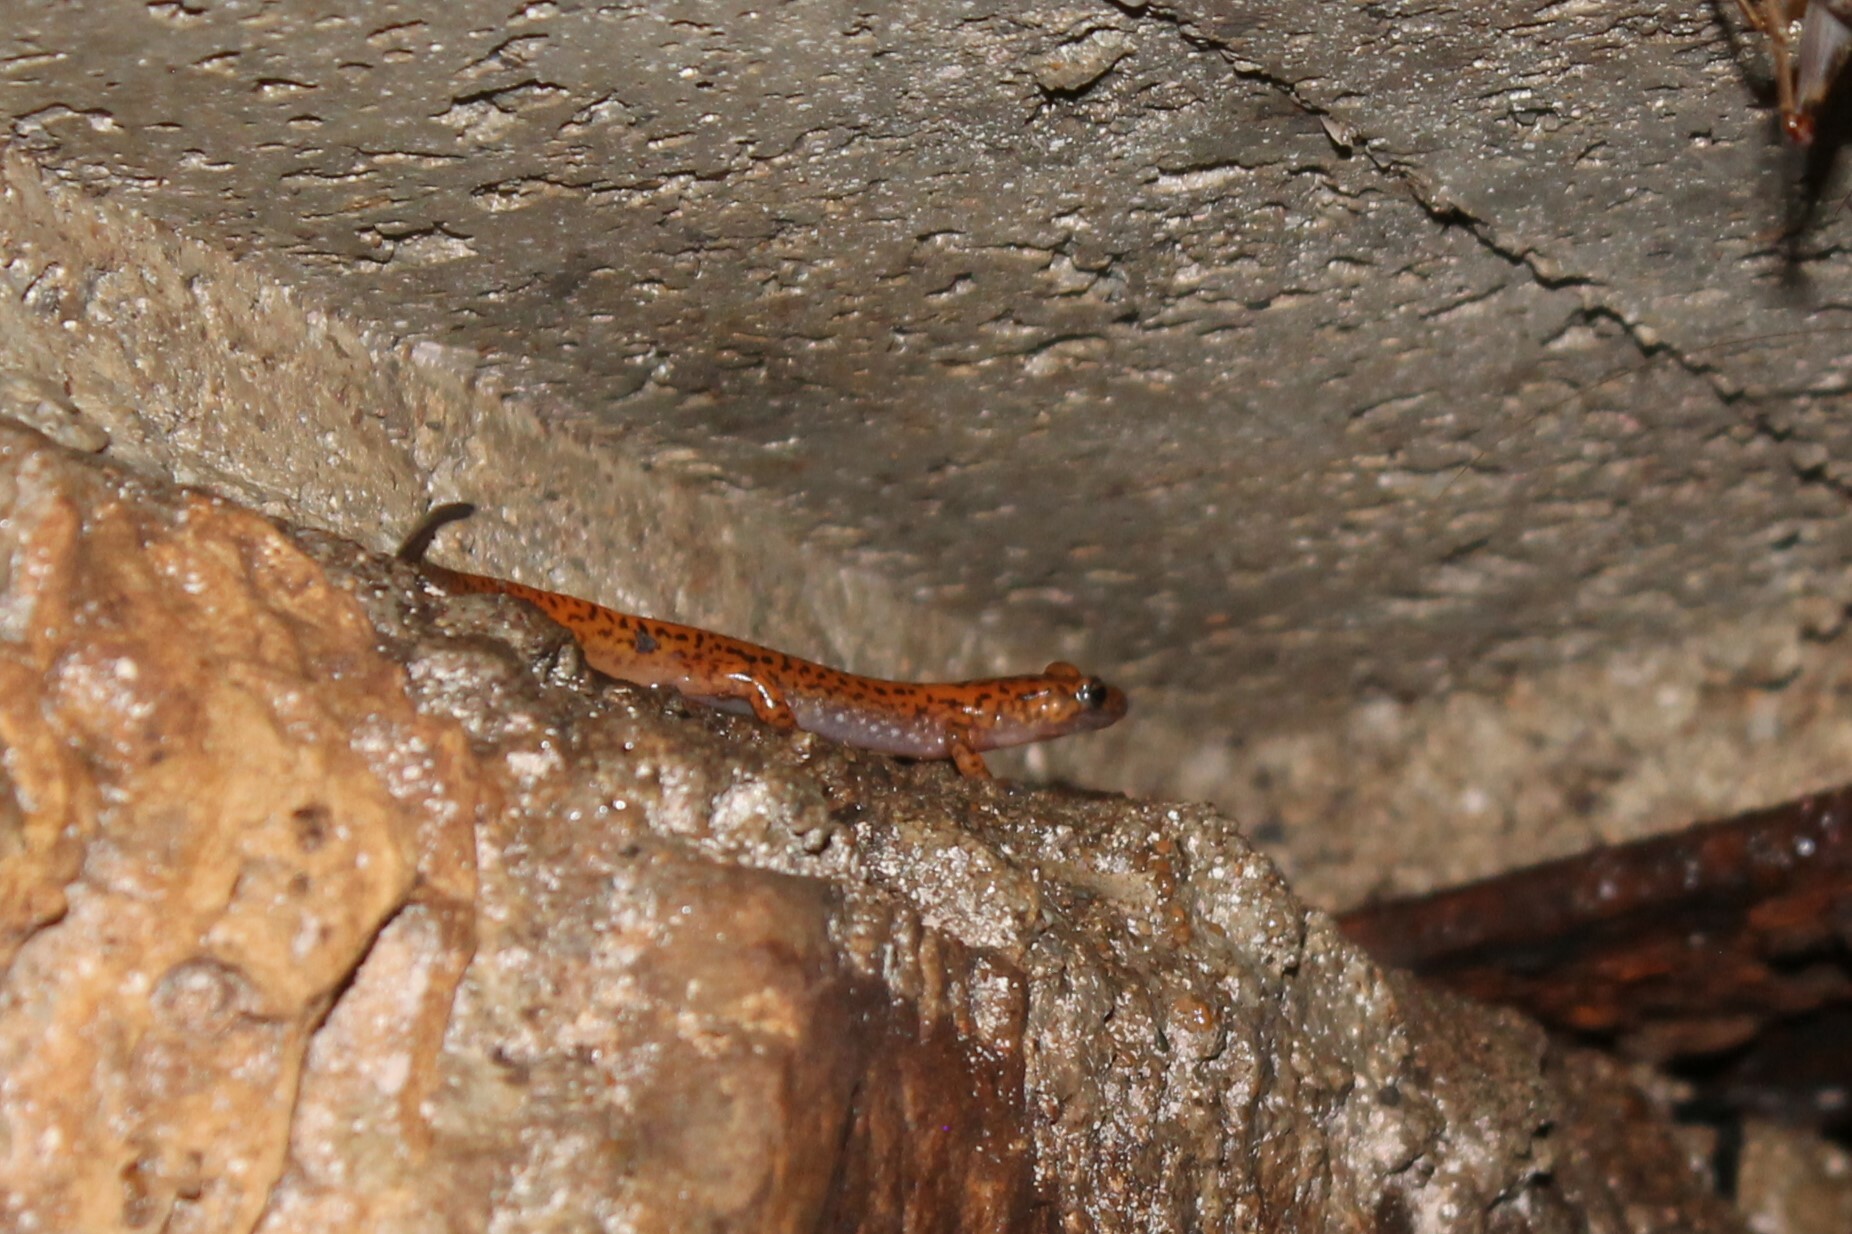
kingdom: Animalia
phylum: Chordata
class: Amphibia
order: Caudata
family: Plethodontidae
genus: Eurycea
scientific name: Eurycea lucifuga
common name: Cave salamander
